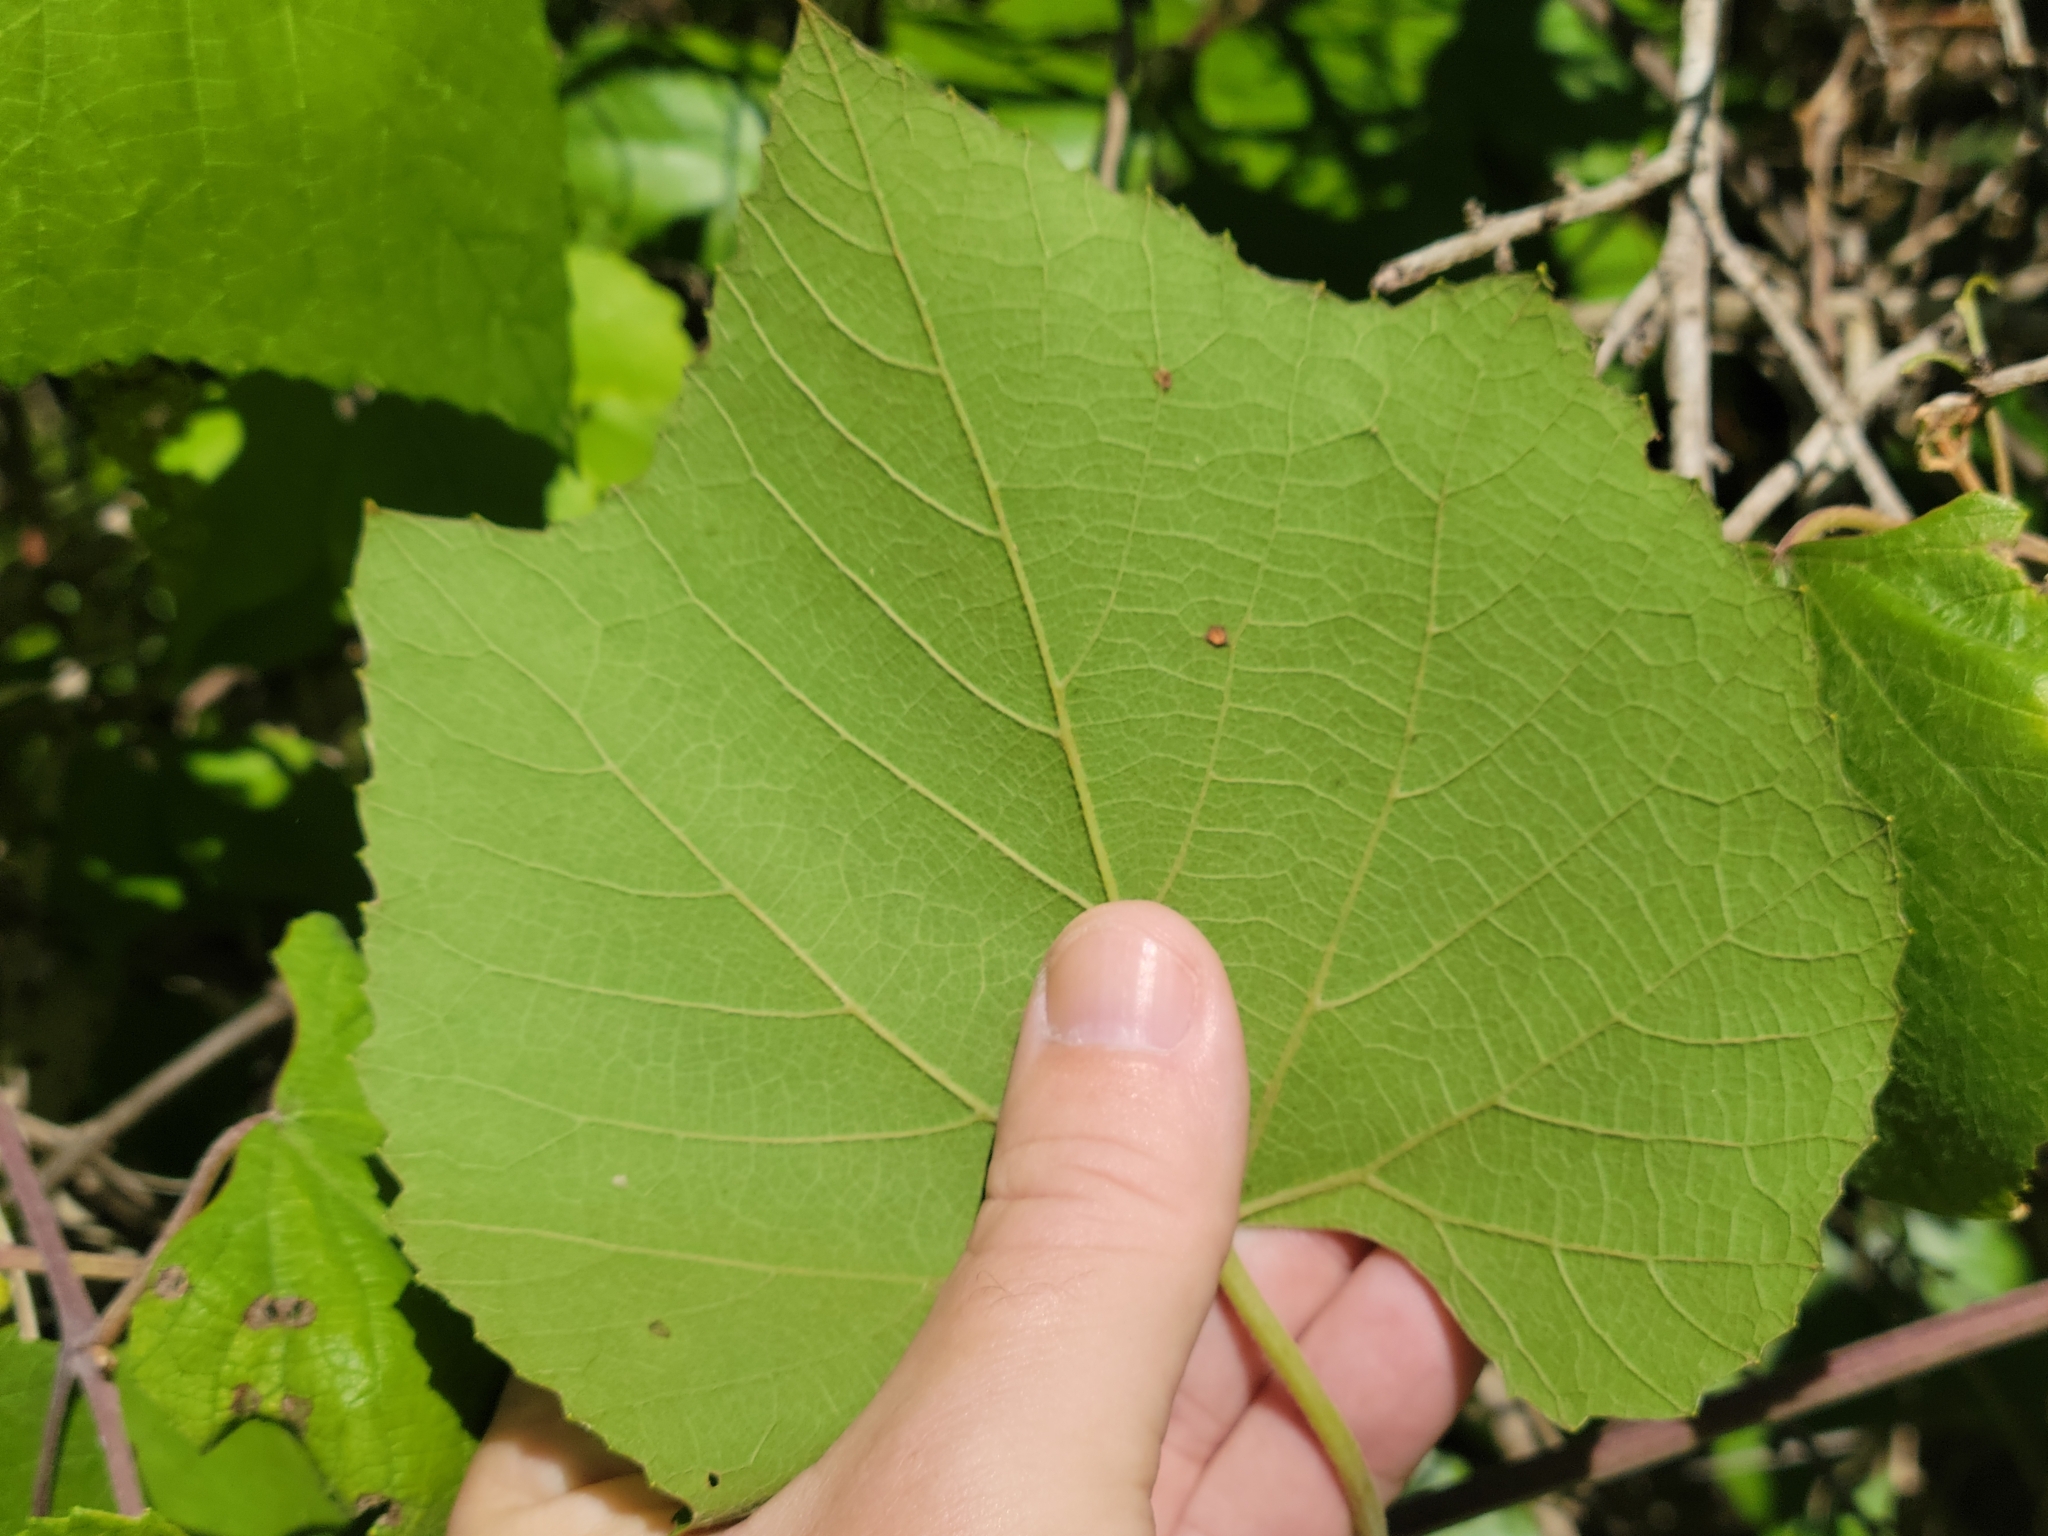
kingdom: Plantae
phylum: Tracheophyta
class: Magnoliopsida
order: Vitales
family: Vitaceae
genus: Vitis
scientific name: Vitis cinerea
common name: Ashy grape
